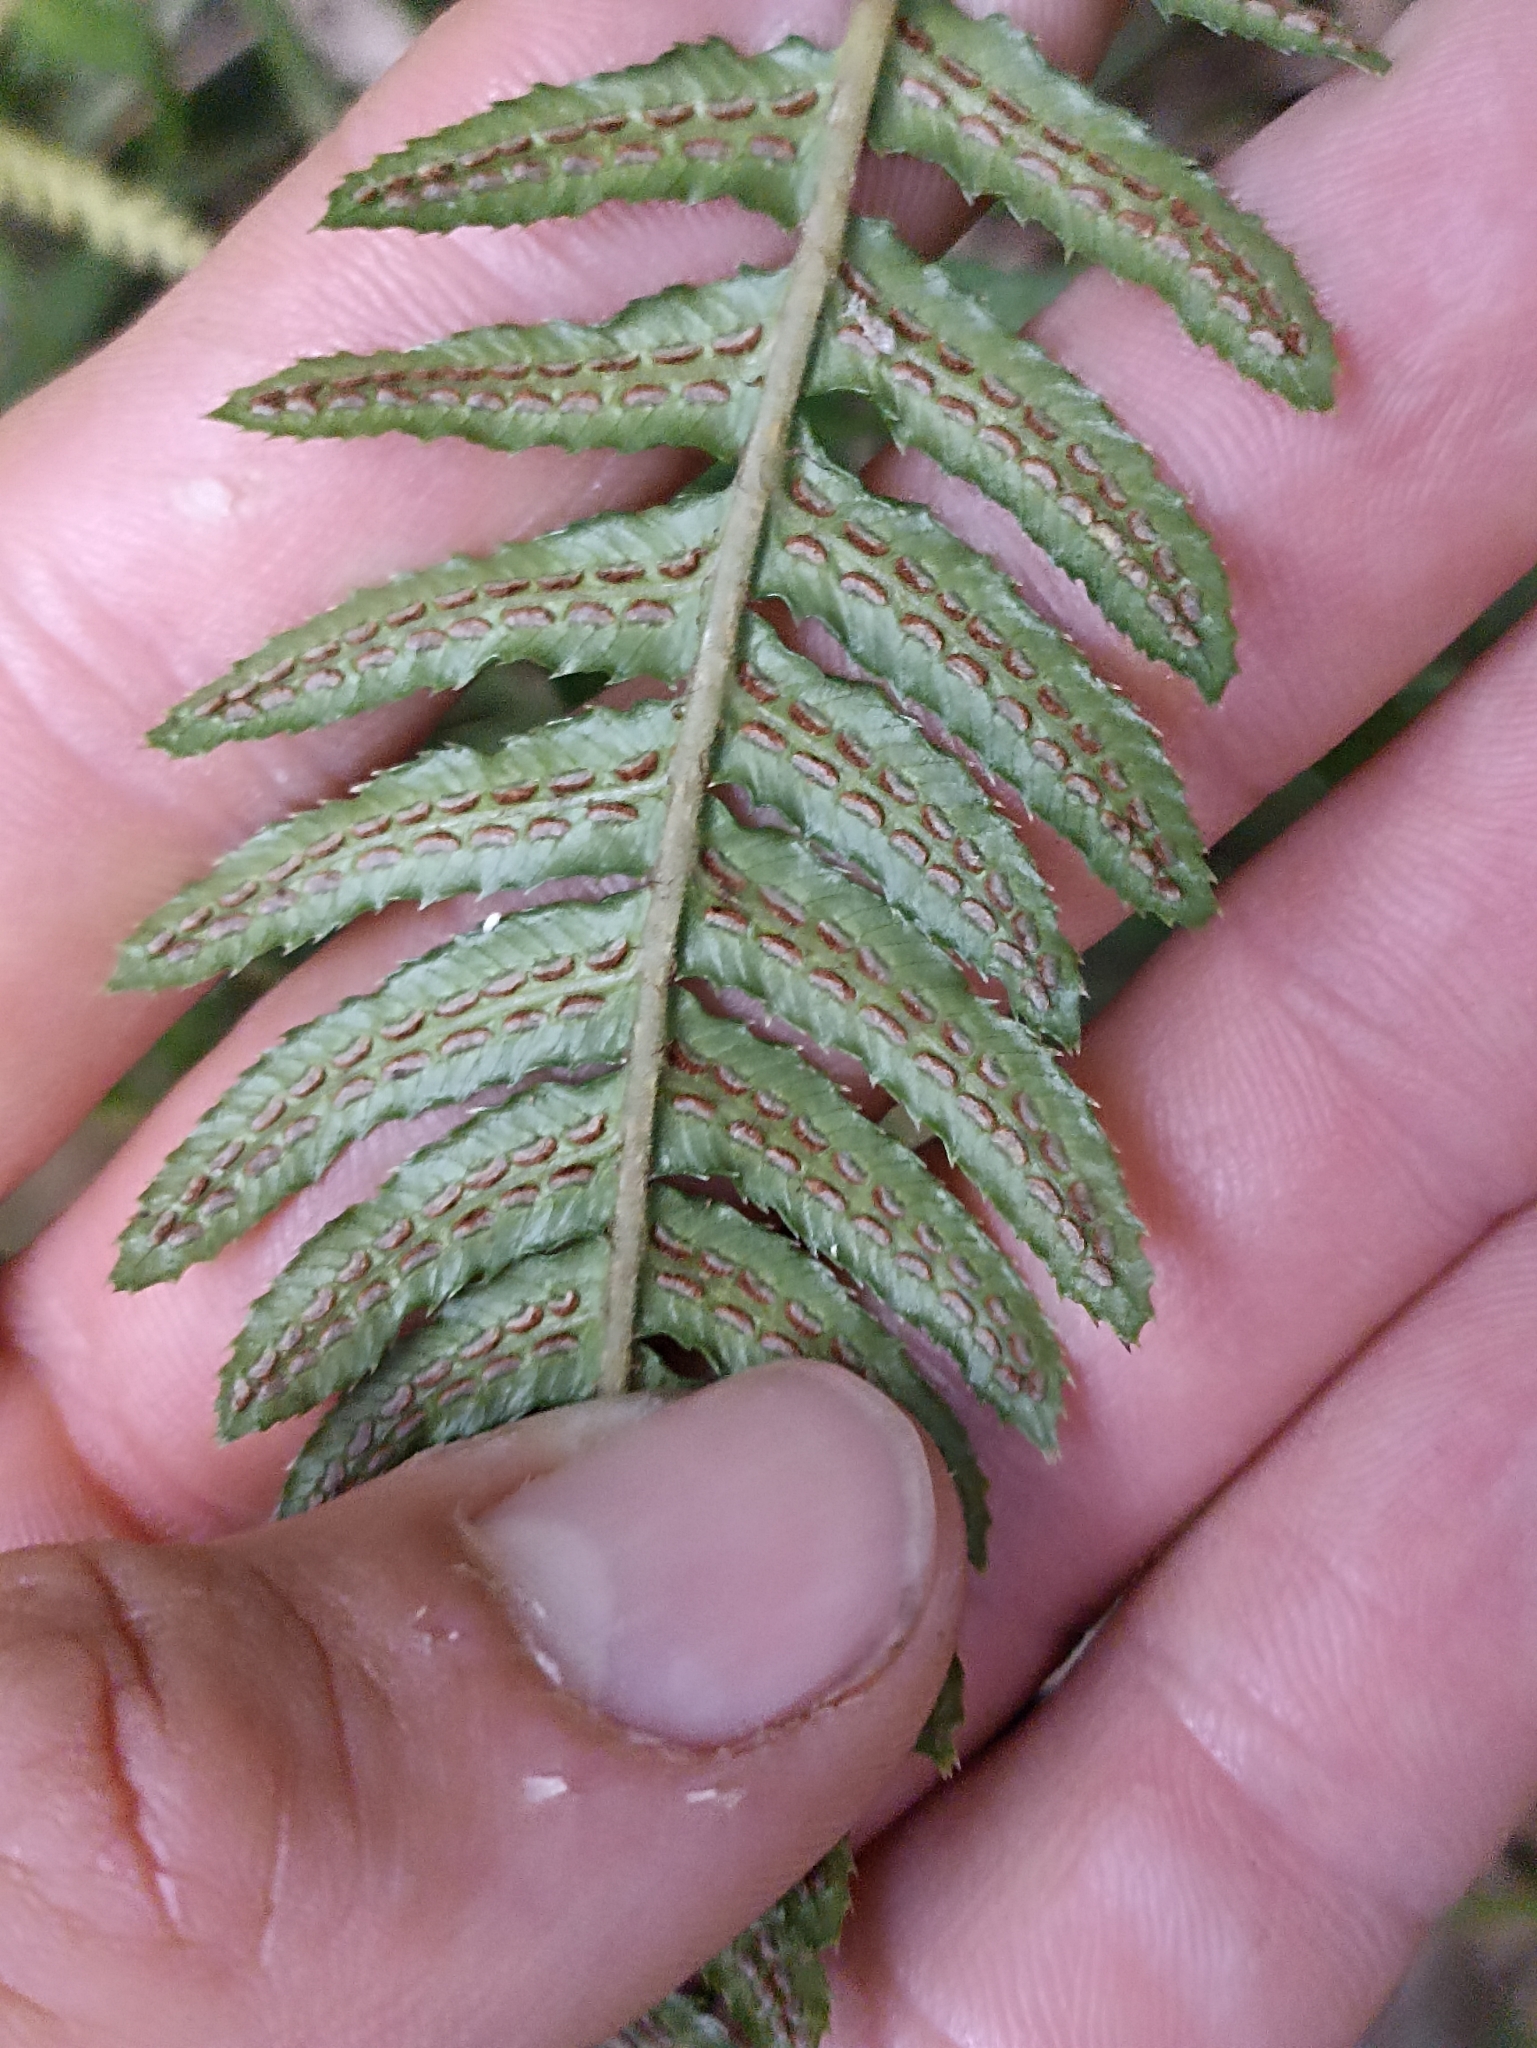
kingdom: Plantae
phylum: Tracheophyta
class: Polypodiopsida
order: Polypodiales
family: Blechnaceae
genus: Doodia
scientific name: Doodia australis
